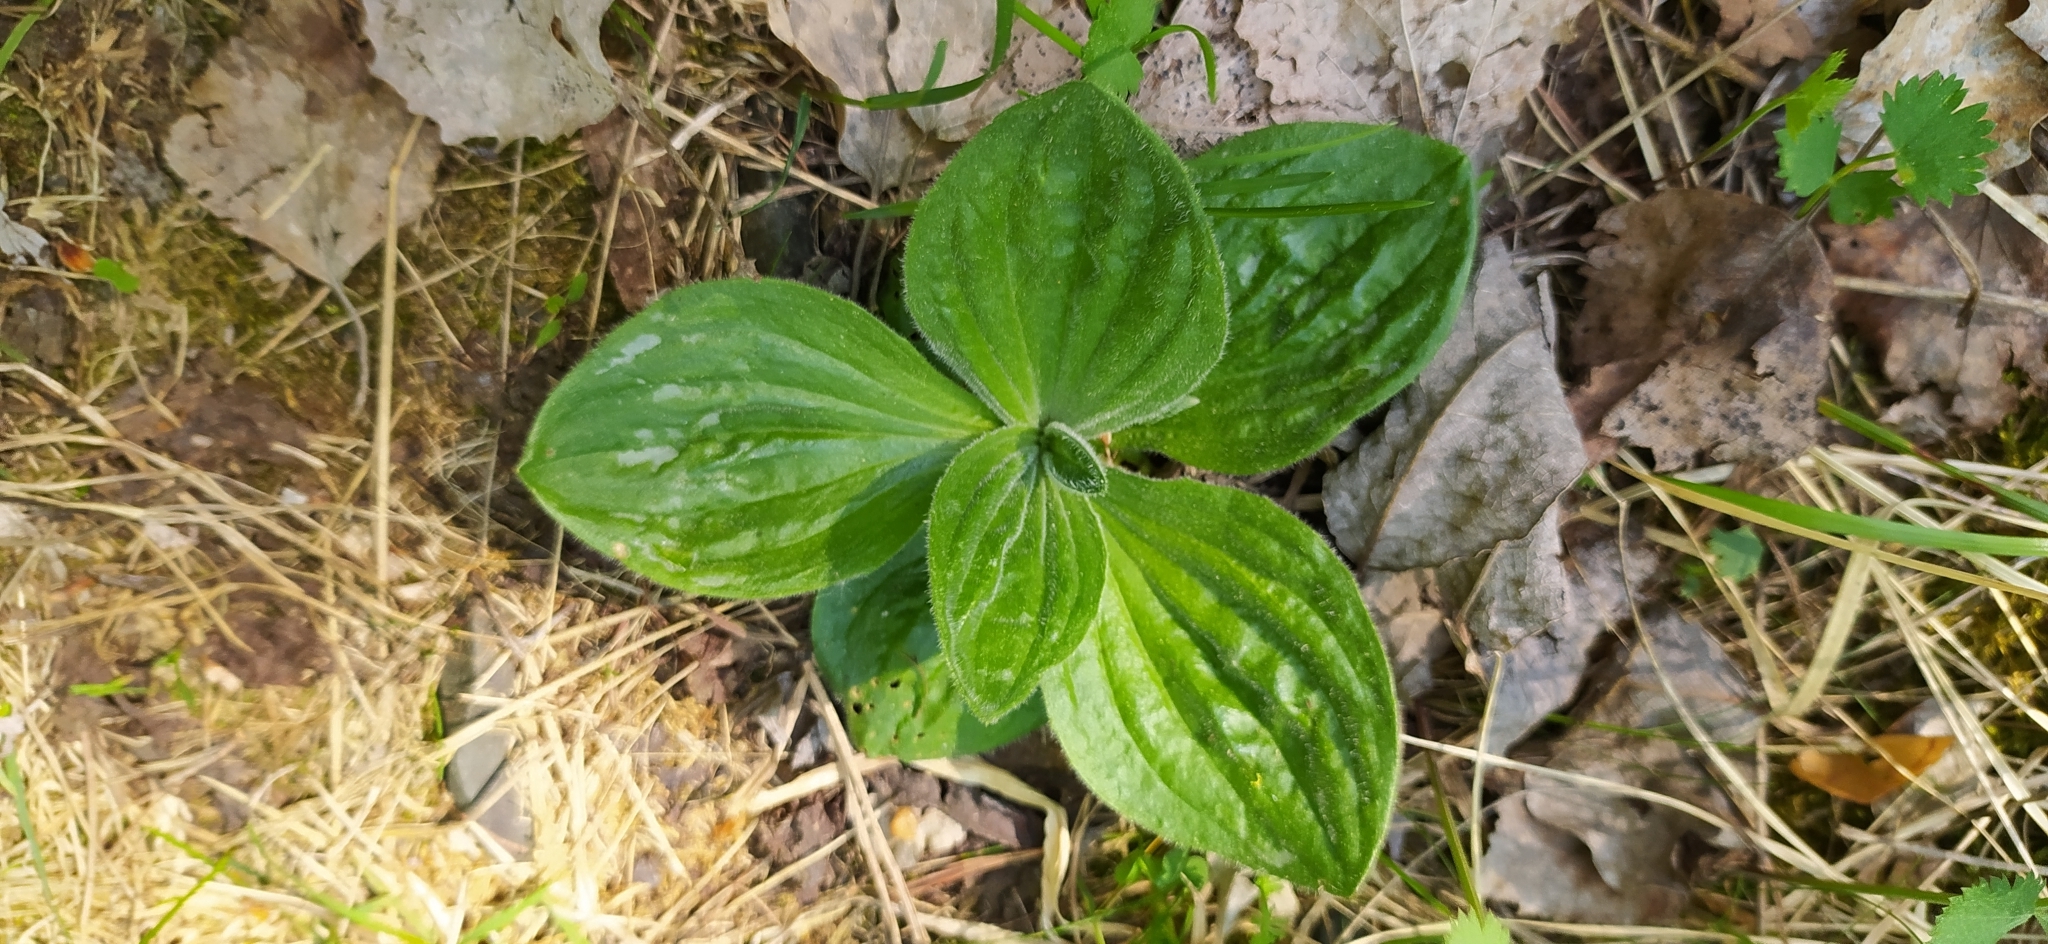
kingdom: Plantae
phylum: Tracheophyta
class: Magnoliopsida
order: Lamiales
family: Plantaginaceae
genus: Plantago
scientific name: Plantago media
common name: Hoary plantain
